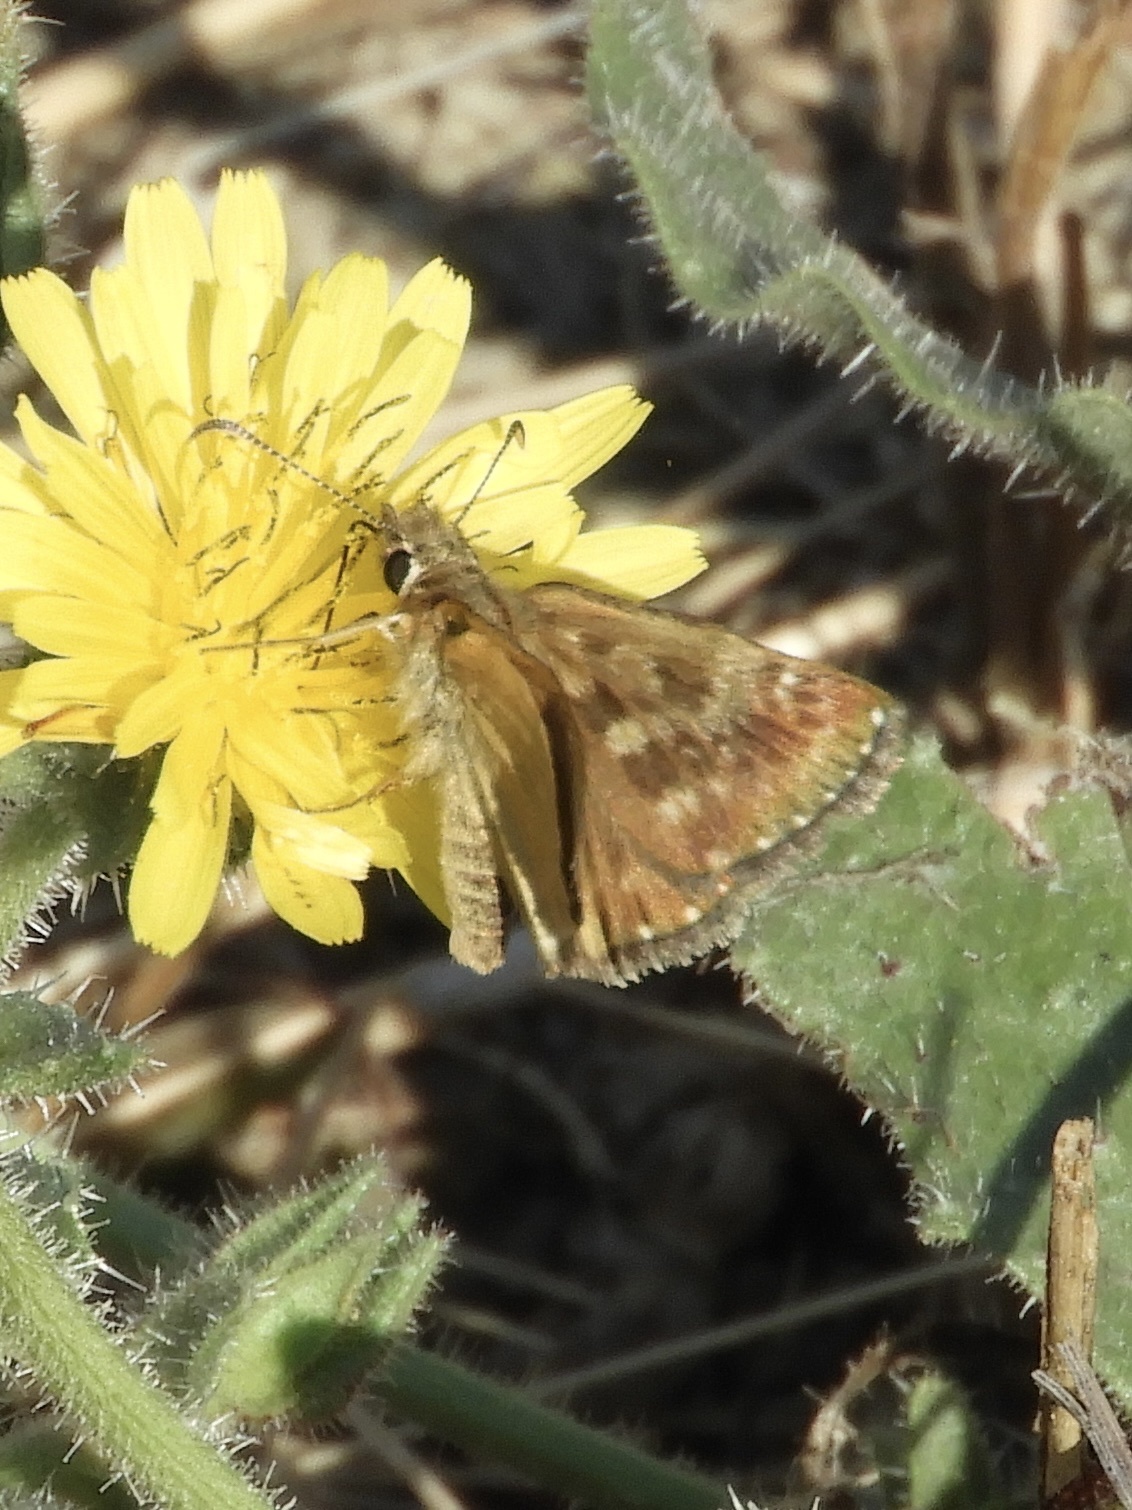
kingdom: Animalia
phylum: Arthropoda
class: Insecta
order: Lepidoptera
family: Hesperiidae
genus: Erynnis
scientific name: Erynnis tages
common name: Dingy skipper
